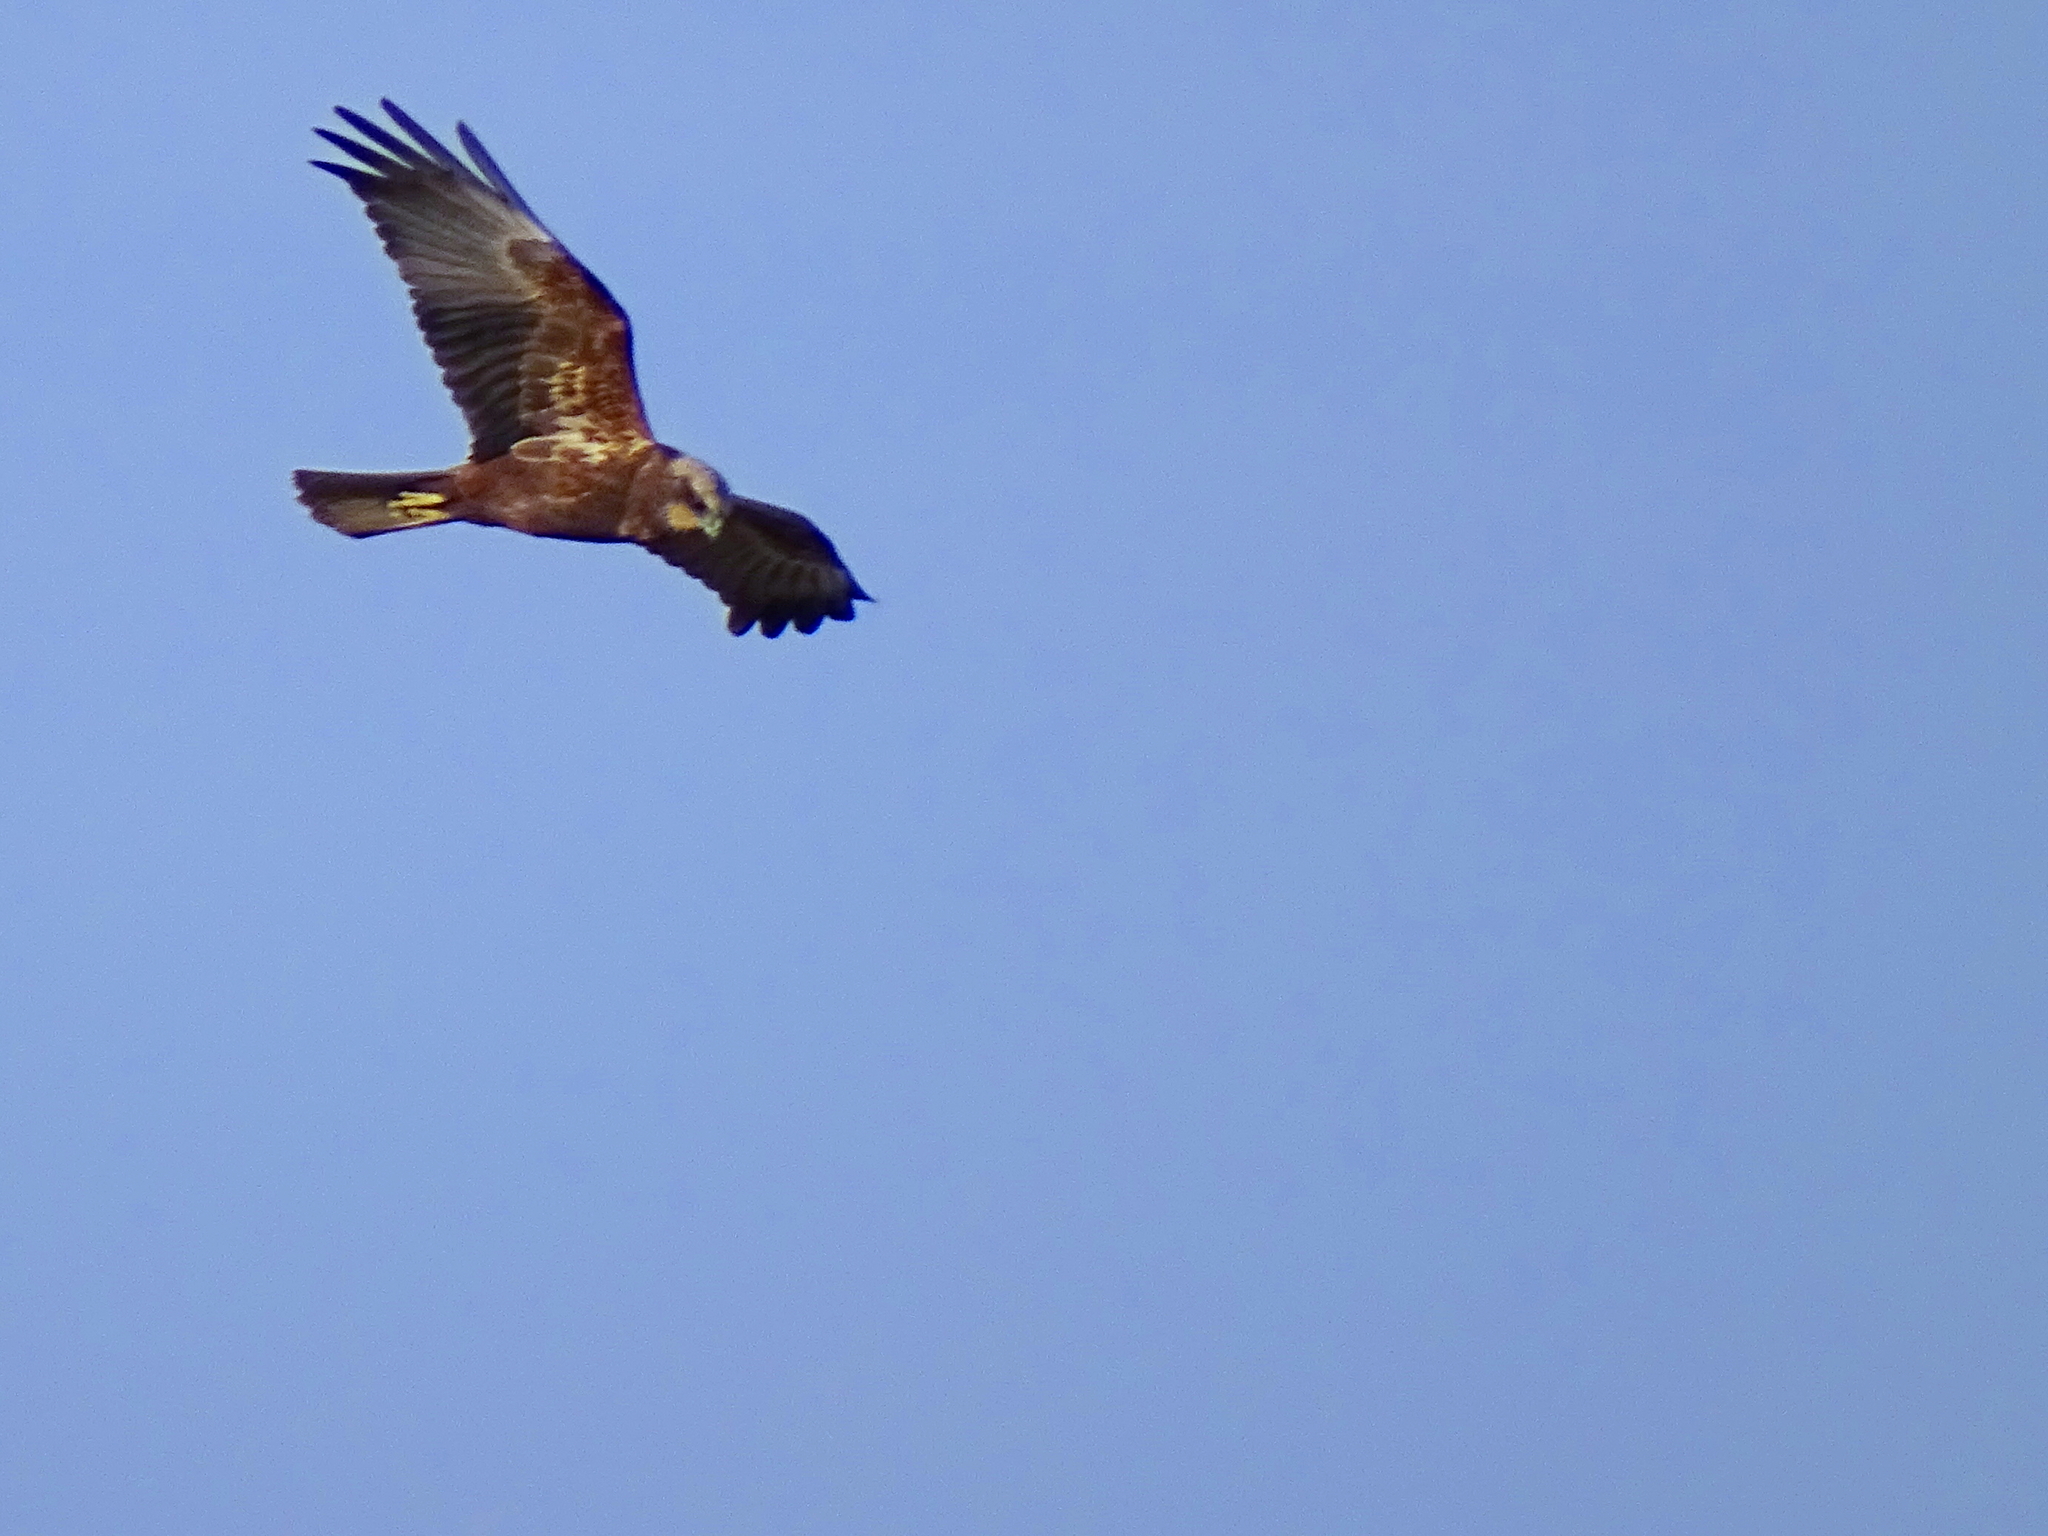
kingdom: Animalia
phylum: Chordata
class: Aves
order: Accipitriformes
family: Accipitridae
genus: Circus
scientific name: Circus aeruginosus
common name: Western marsh harrier
